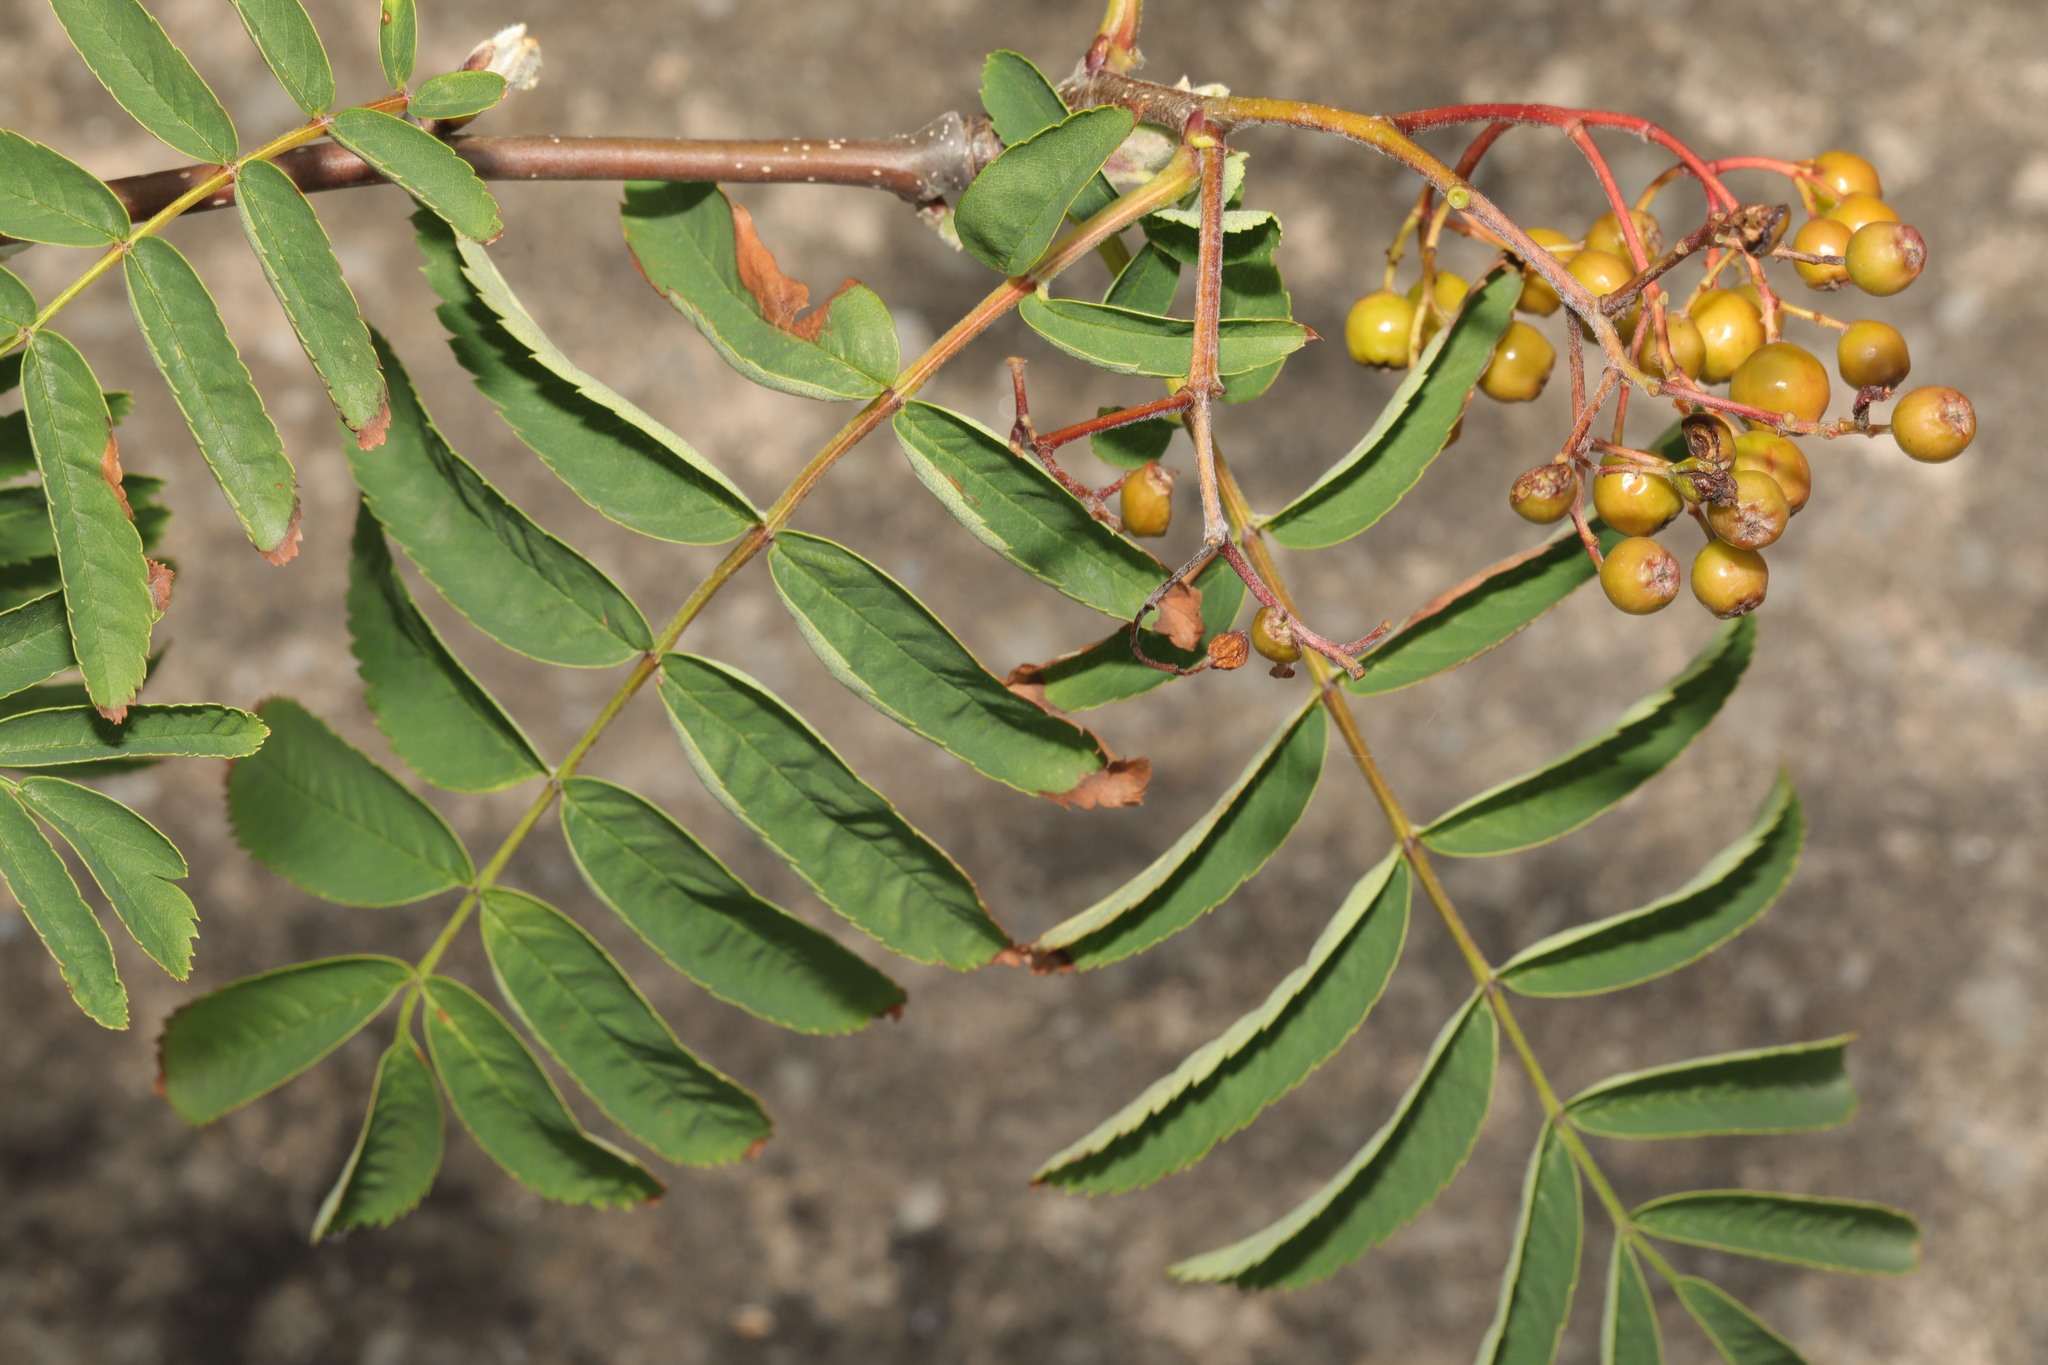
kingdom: Plantae
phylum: Tracheophyta
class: Magnoliopsida
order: Rosales
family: Rosaceae
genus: Sorbus
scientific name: Sorbus aucuparia
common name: Rowan
